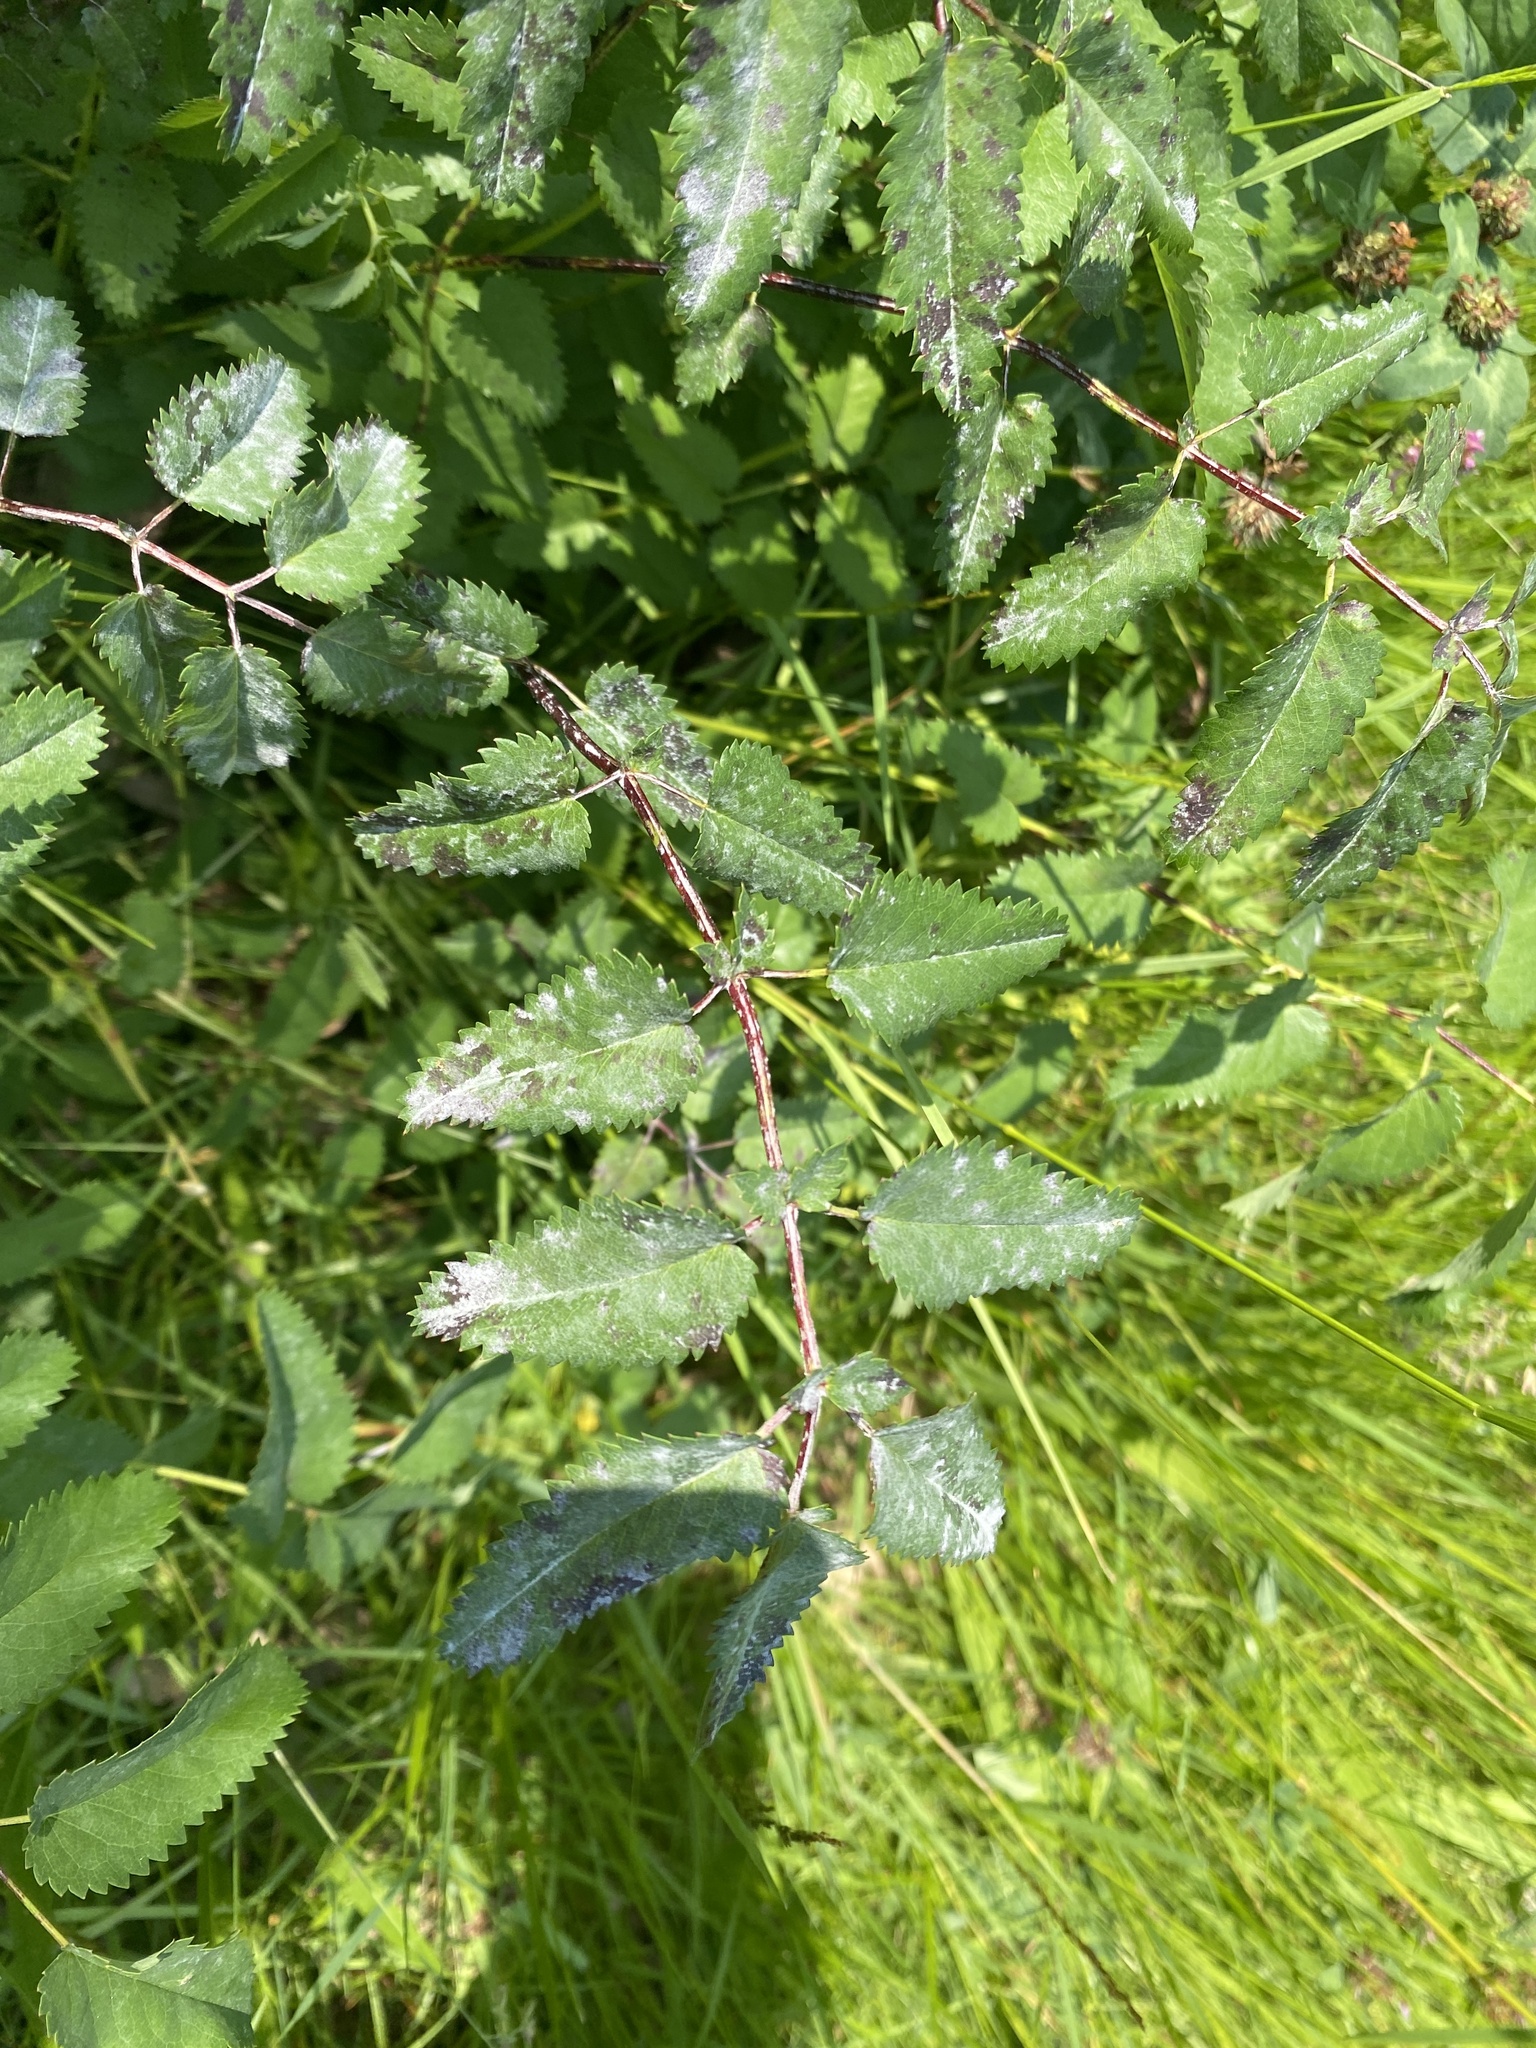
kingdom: Fungi
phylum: Ascomycota
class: Leotiomycetes
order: Helotiales
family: Erysiphaceae
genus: Podosphaera
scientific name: Podosphaera ferruginea
